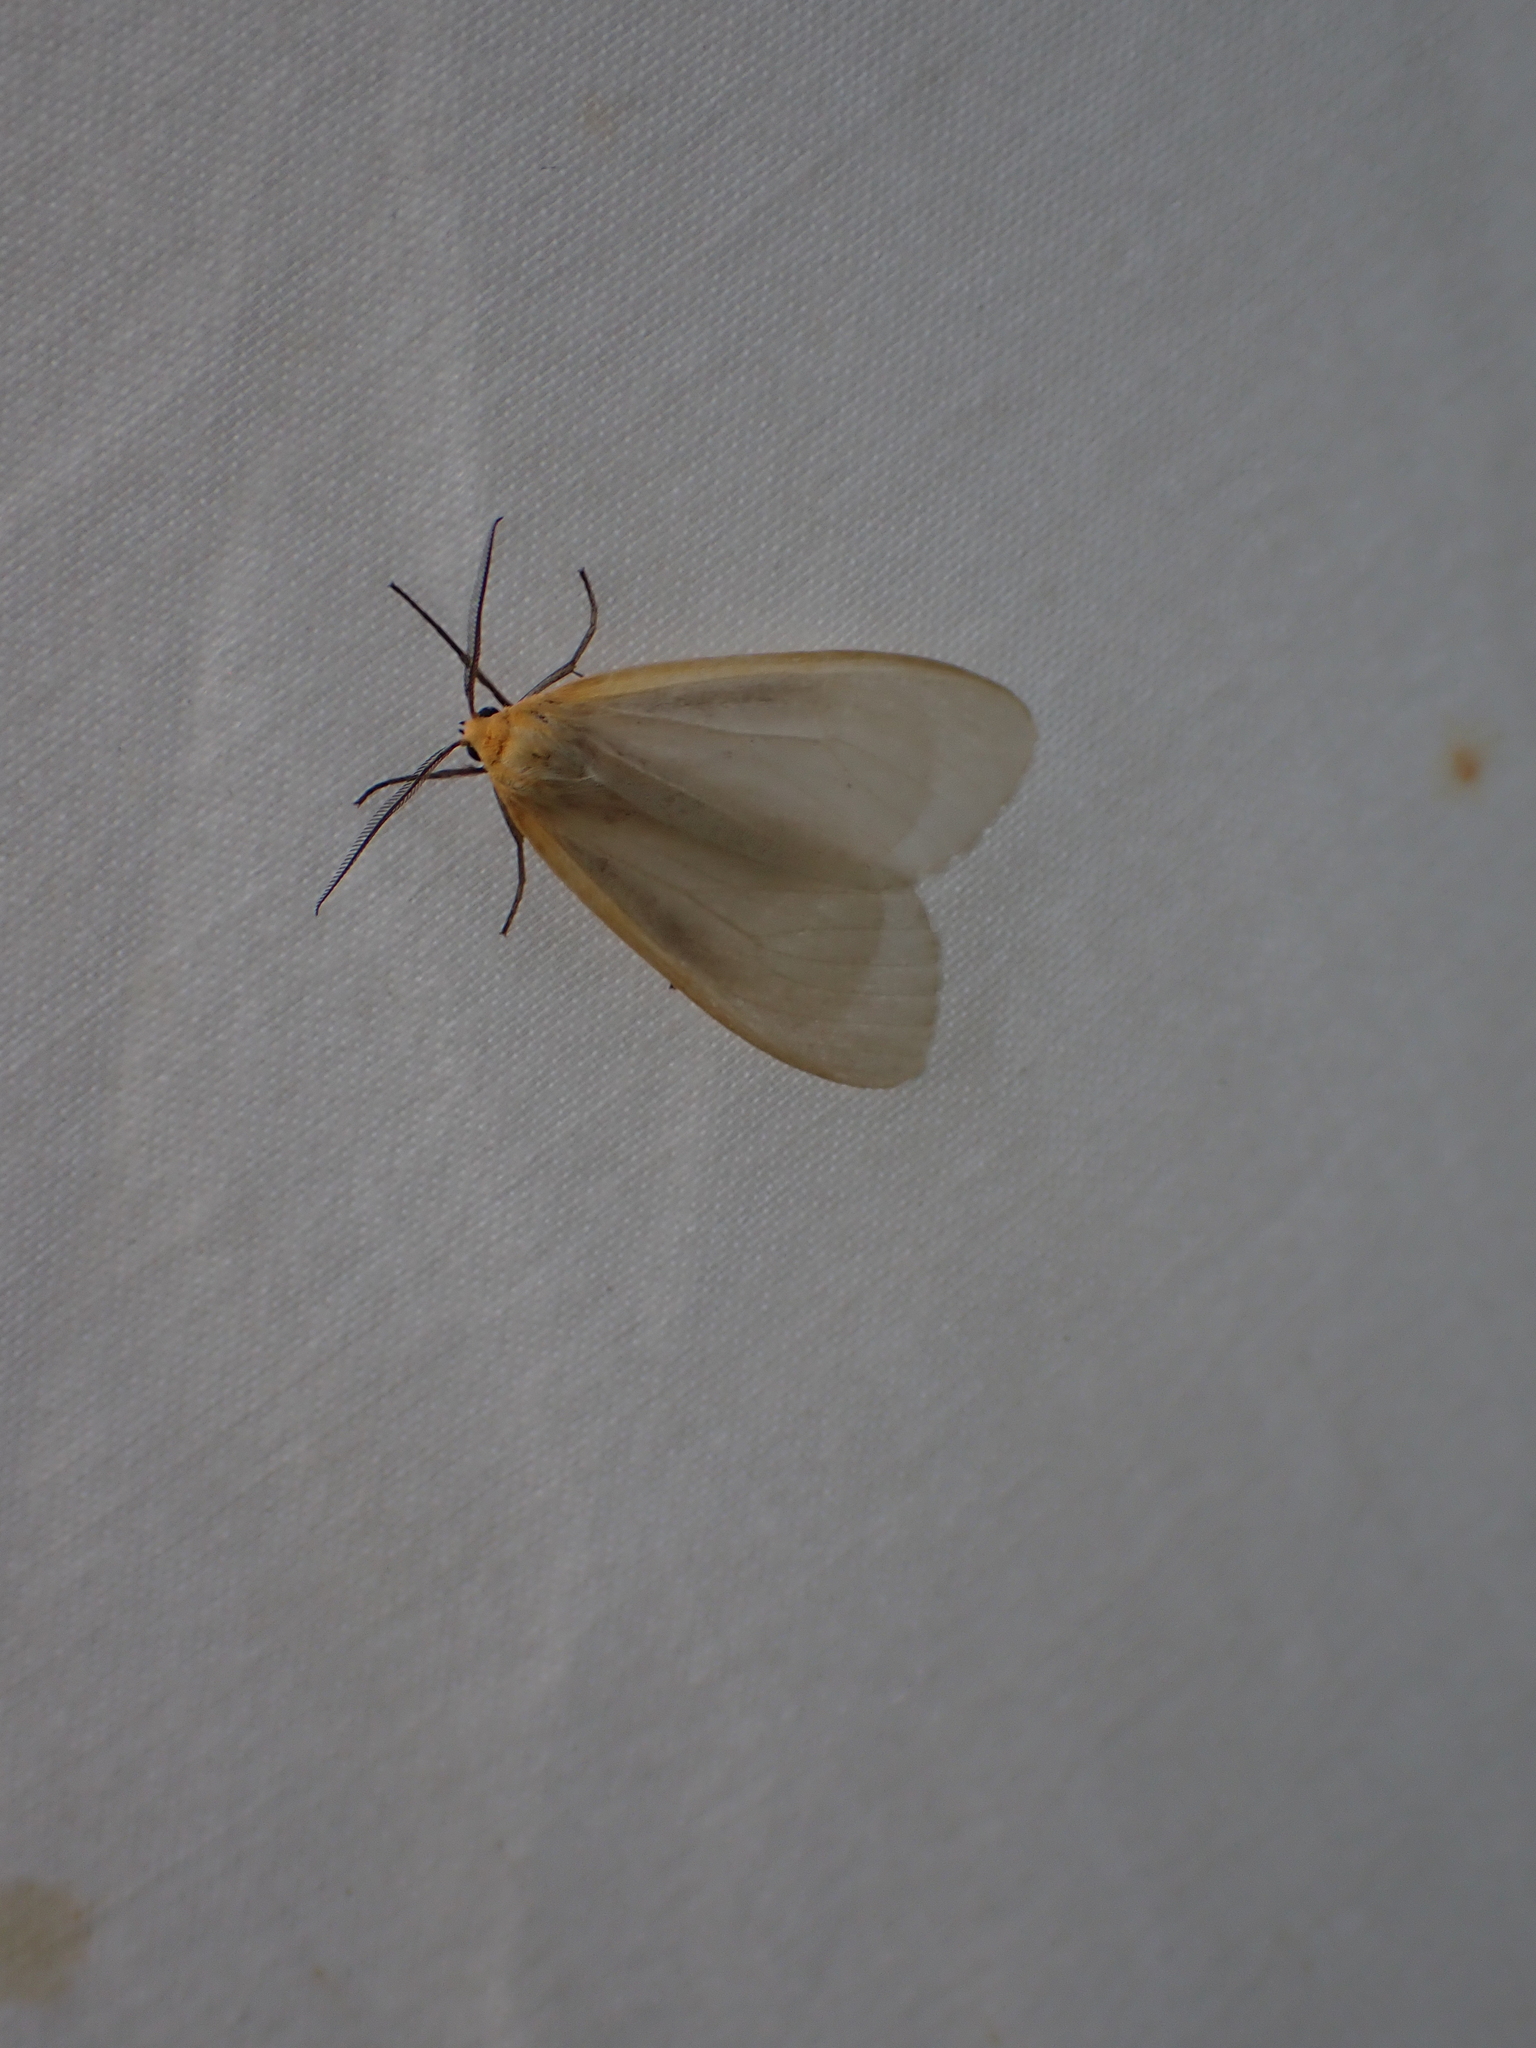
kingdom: Animalia
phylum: Arthropoda
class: Insecta
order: Lepidoptera
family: Erebidae
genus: Cycnia
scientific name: Cycnia tenera
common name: Delicate cycnia moth
